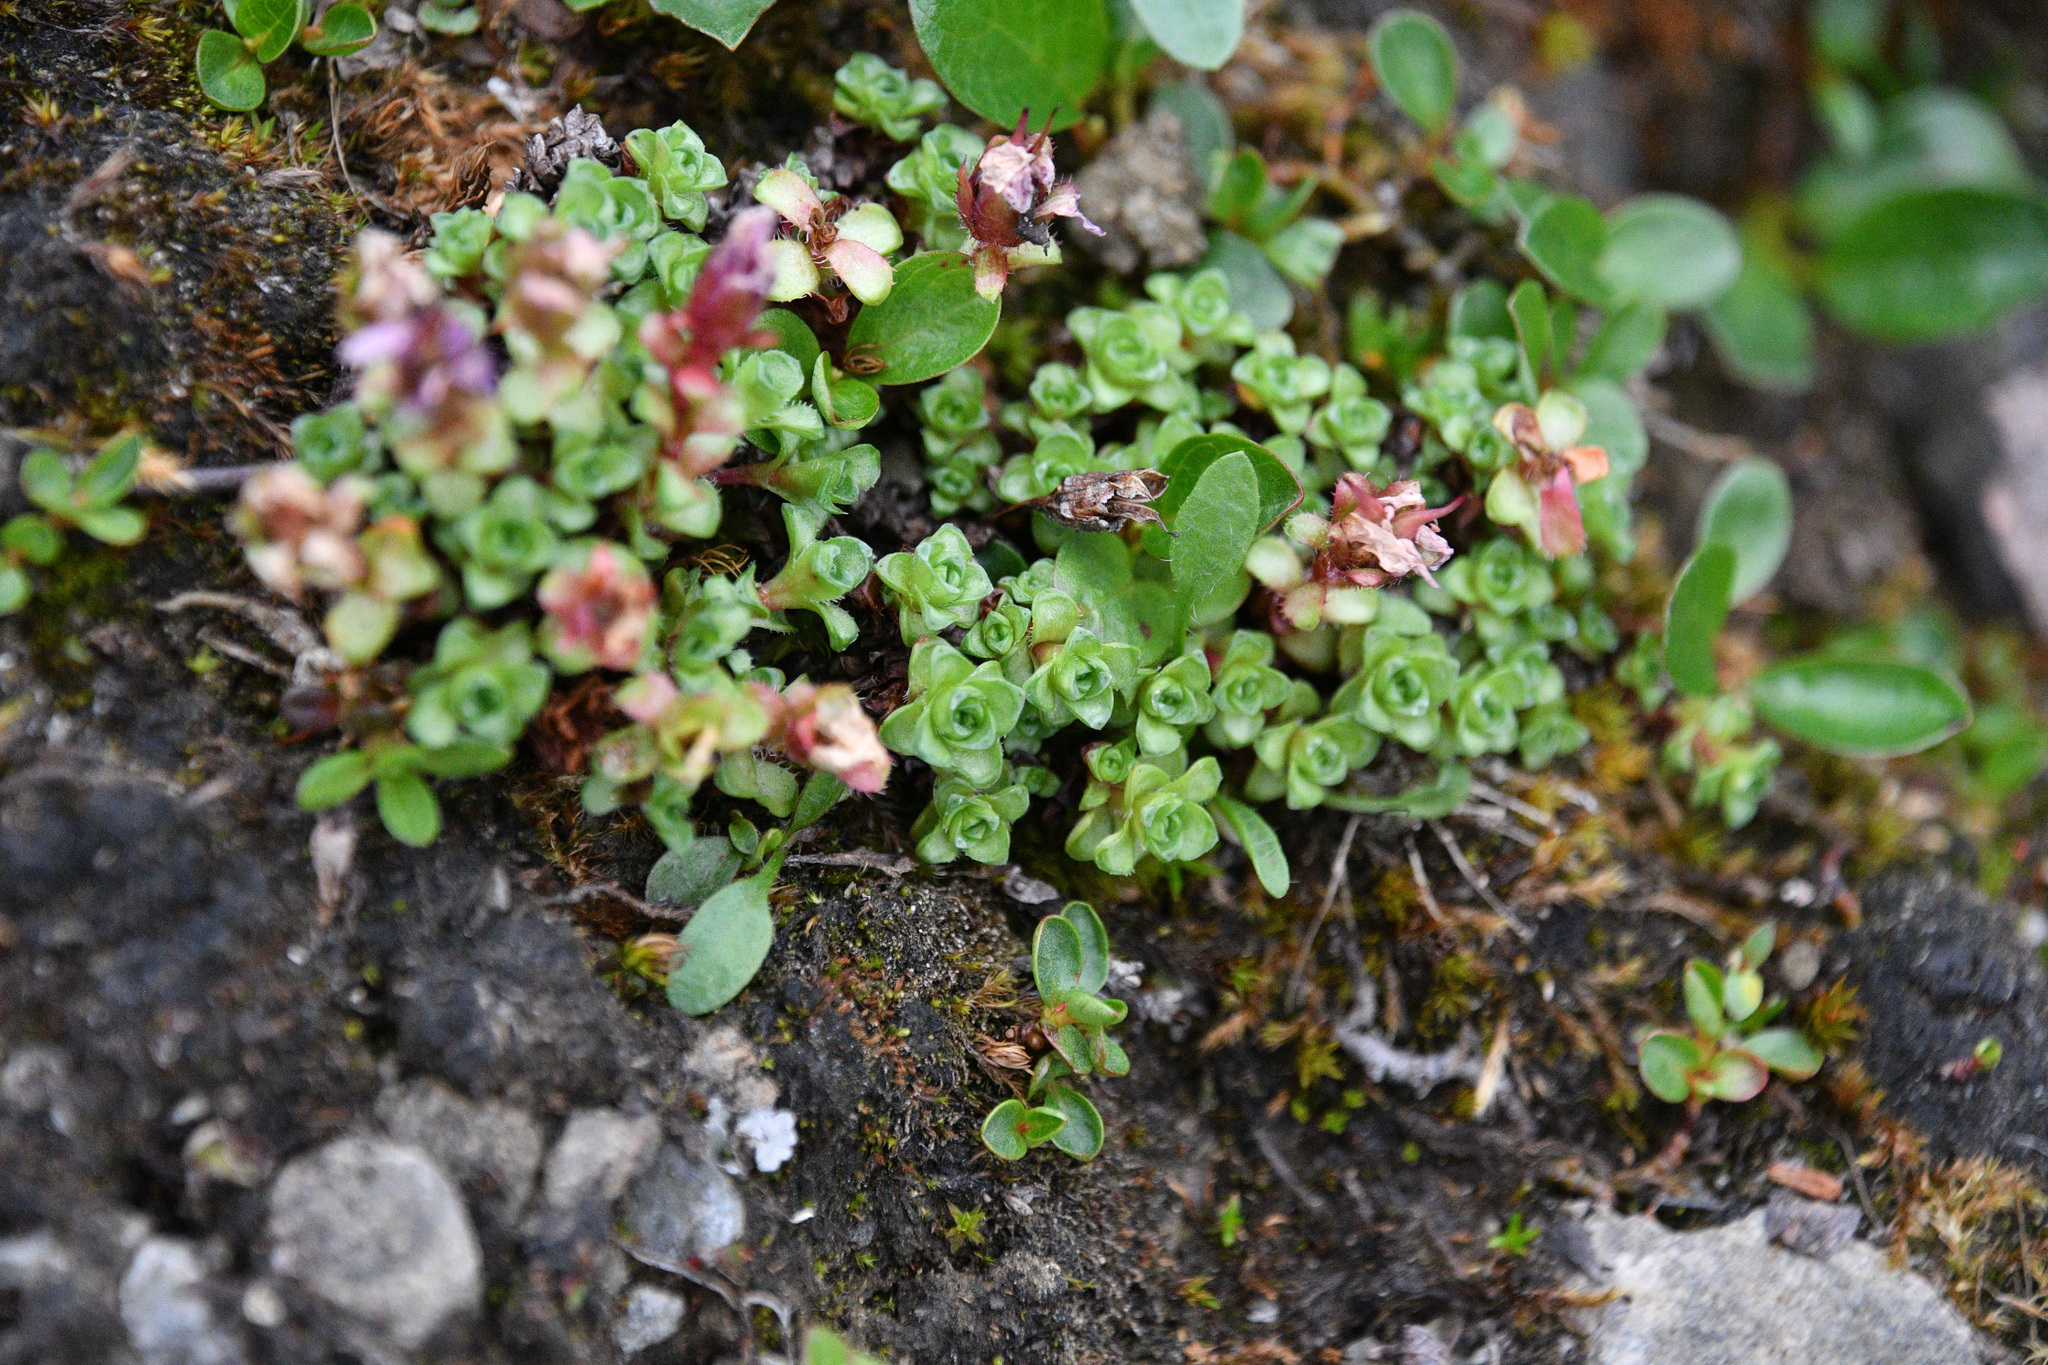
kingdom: Plantae
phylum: Tracheophyta
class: Magnoliopsida
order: Saxifragales
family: Saxifragaceae
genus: Saxifraga
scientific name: Saxifraga oppositifolia
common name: Purple saxifrage
